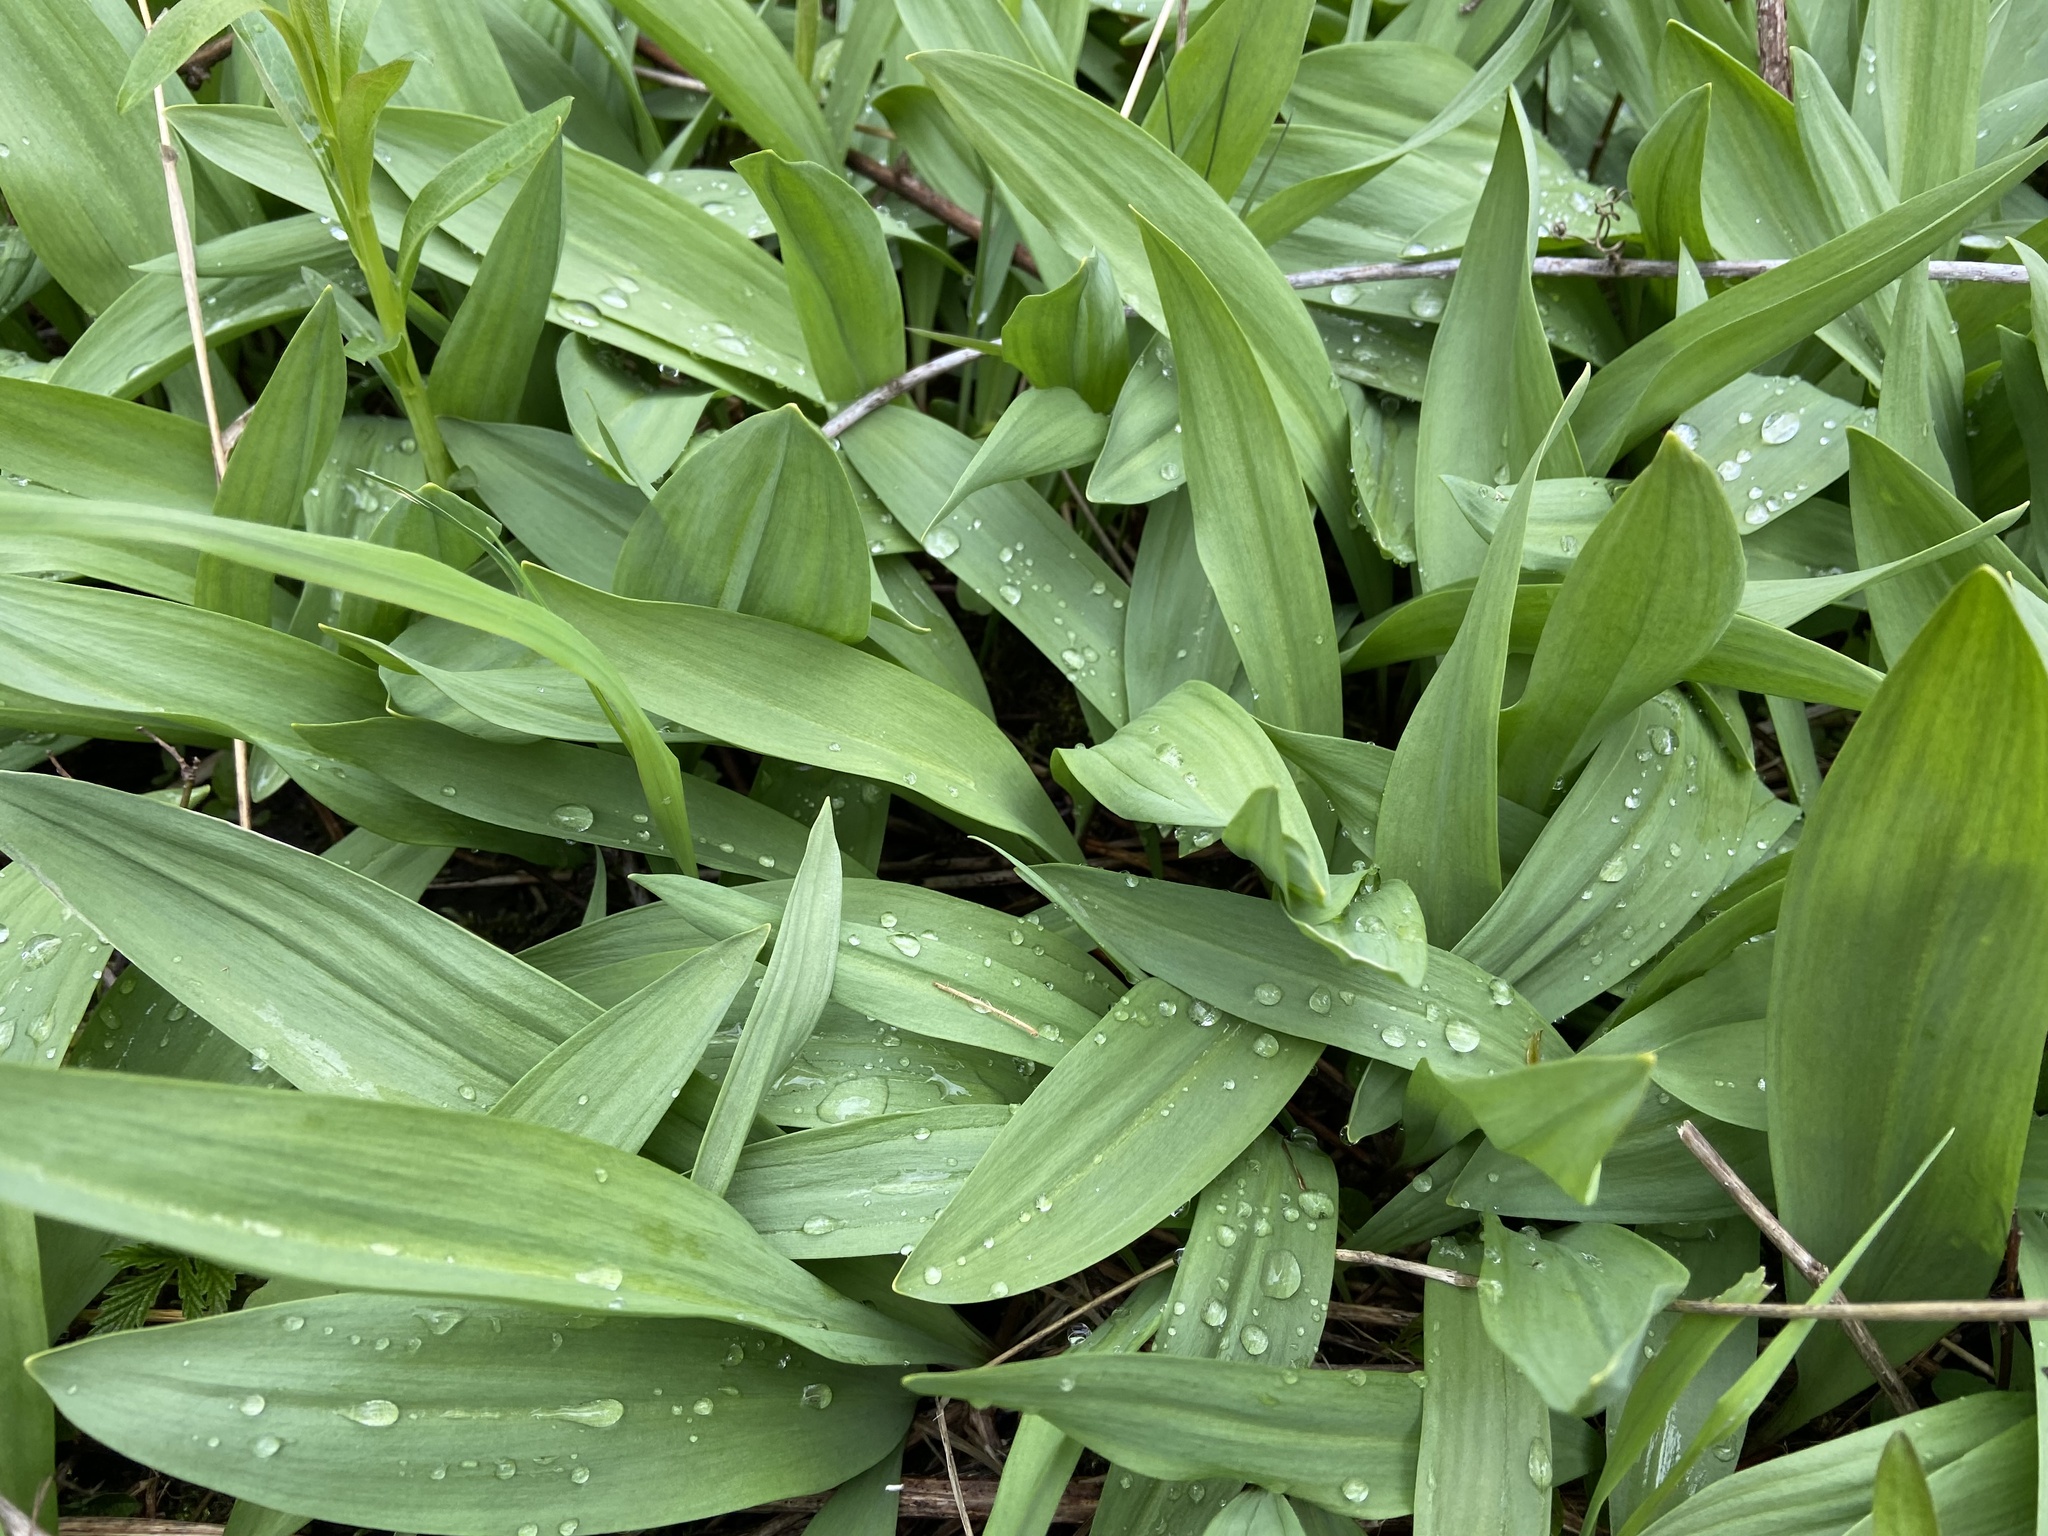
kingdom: Plantae
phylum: Tracheophyta
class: Liliopsida
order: Asparagales
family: Amaryllidaceae
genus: Allium
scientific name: Allium tricoccum
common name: Ramp
